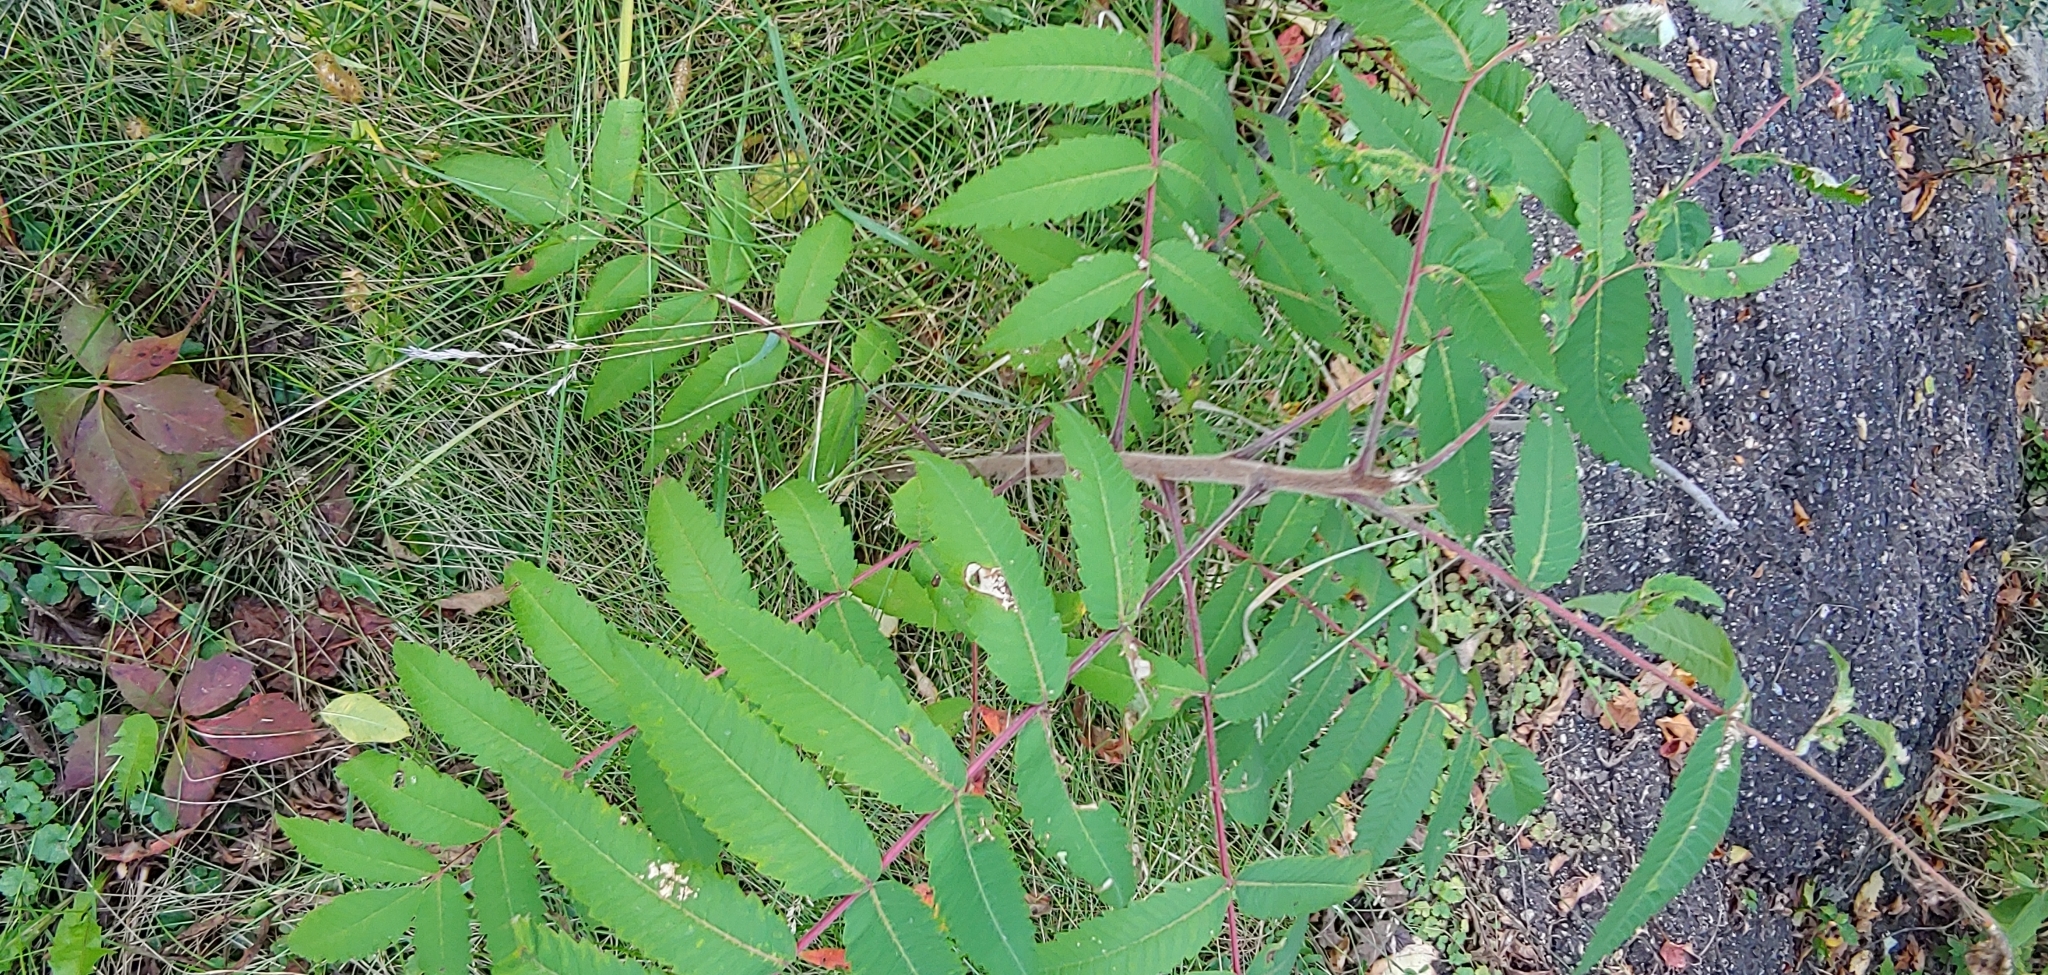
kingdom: Plantae
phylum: Tracheophyta
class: Magnoliopsida
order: Sapindales
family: Anacardiaceae
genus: Rhus
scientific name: Rhus typhina
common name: Staghorn sumac
